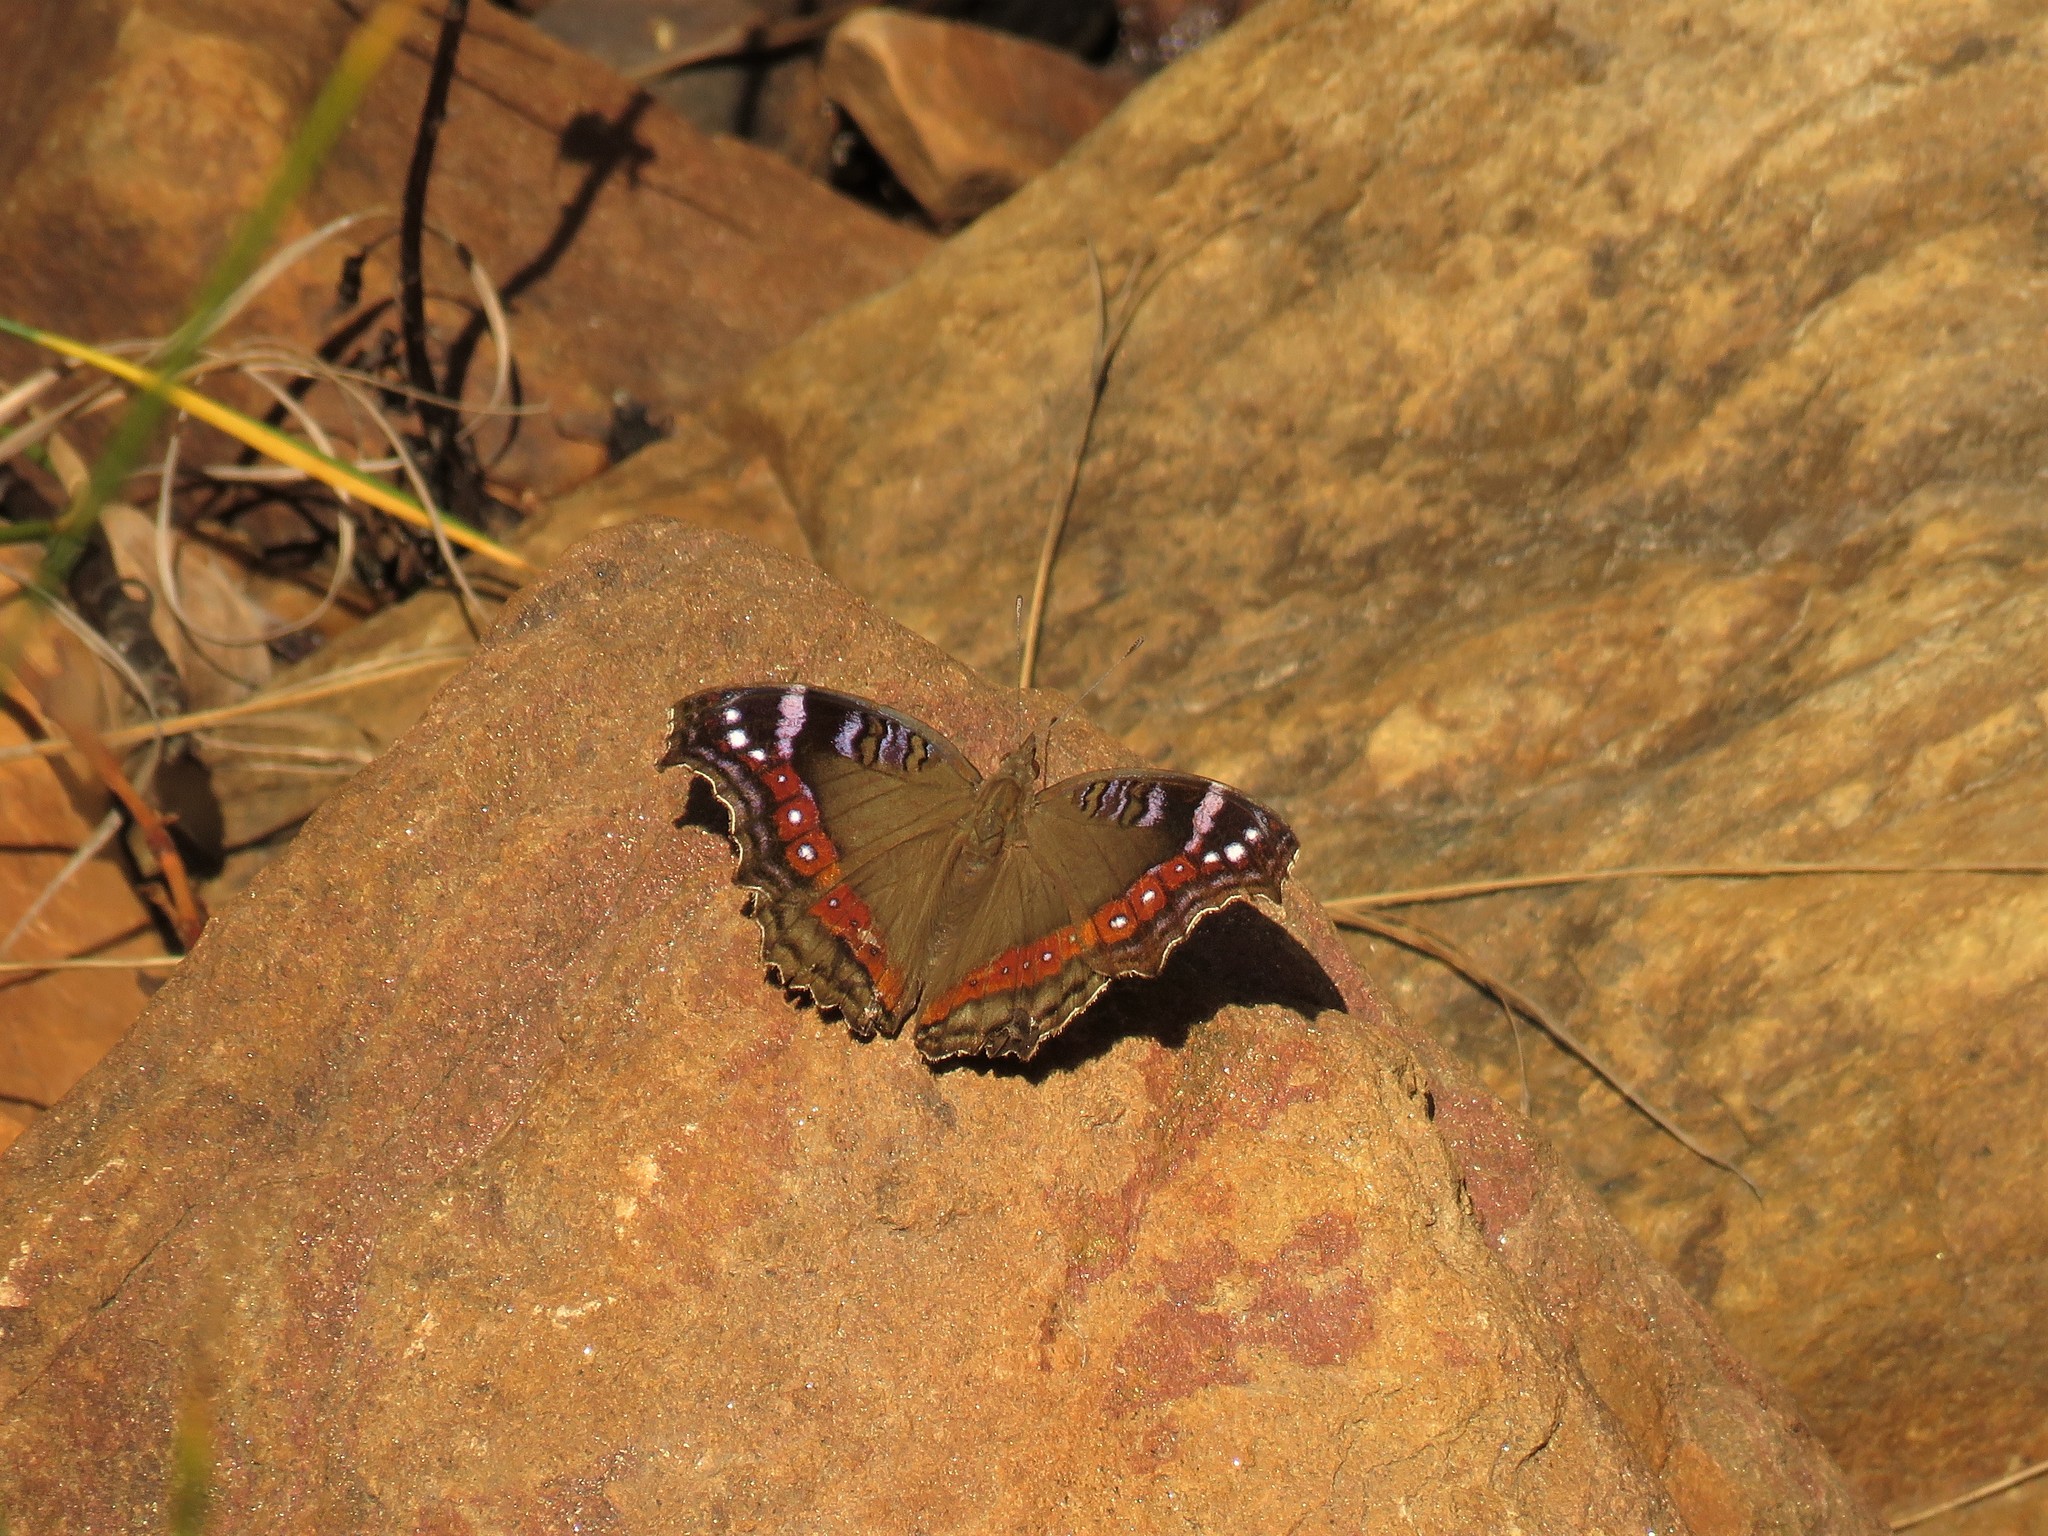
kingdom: Animalia
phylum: Arthropoda
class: Insecta
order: Lepidoptera
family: Nymphalidae
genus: Junonia
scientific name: Junonia archesia
